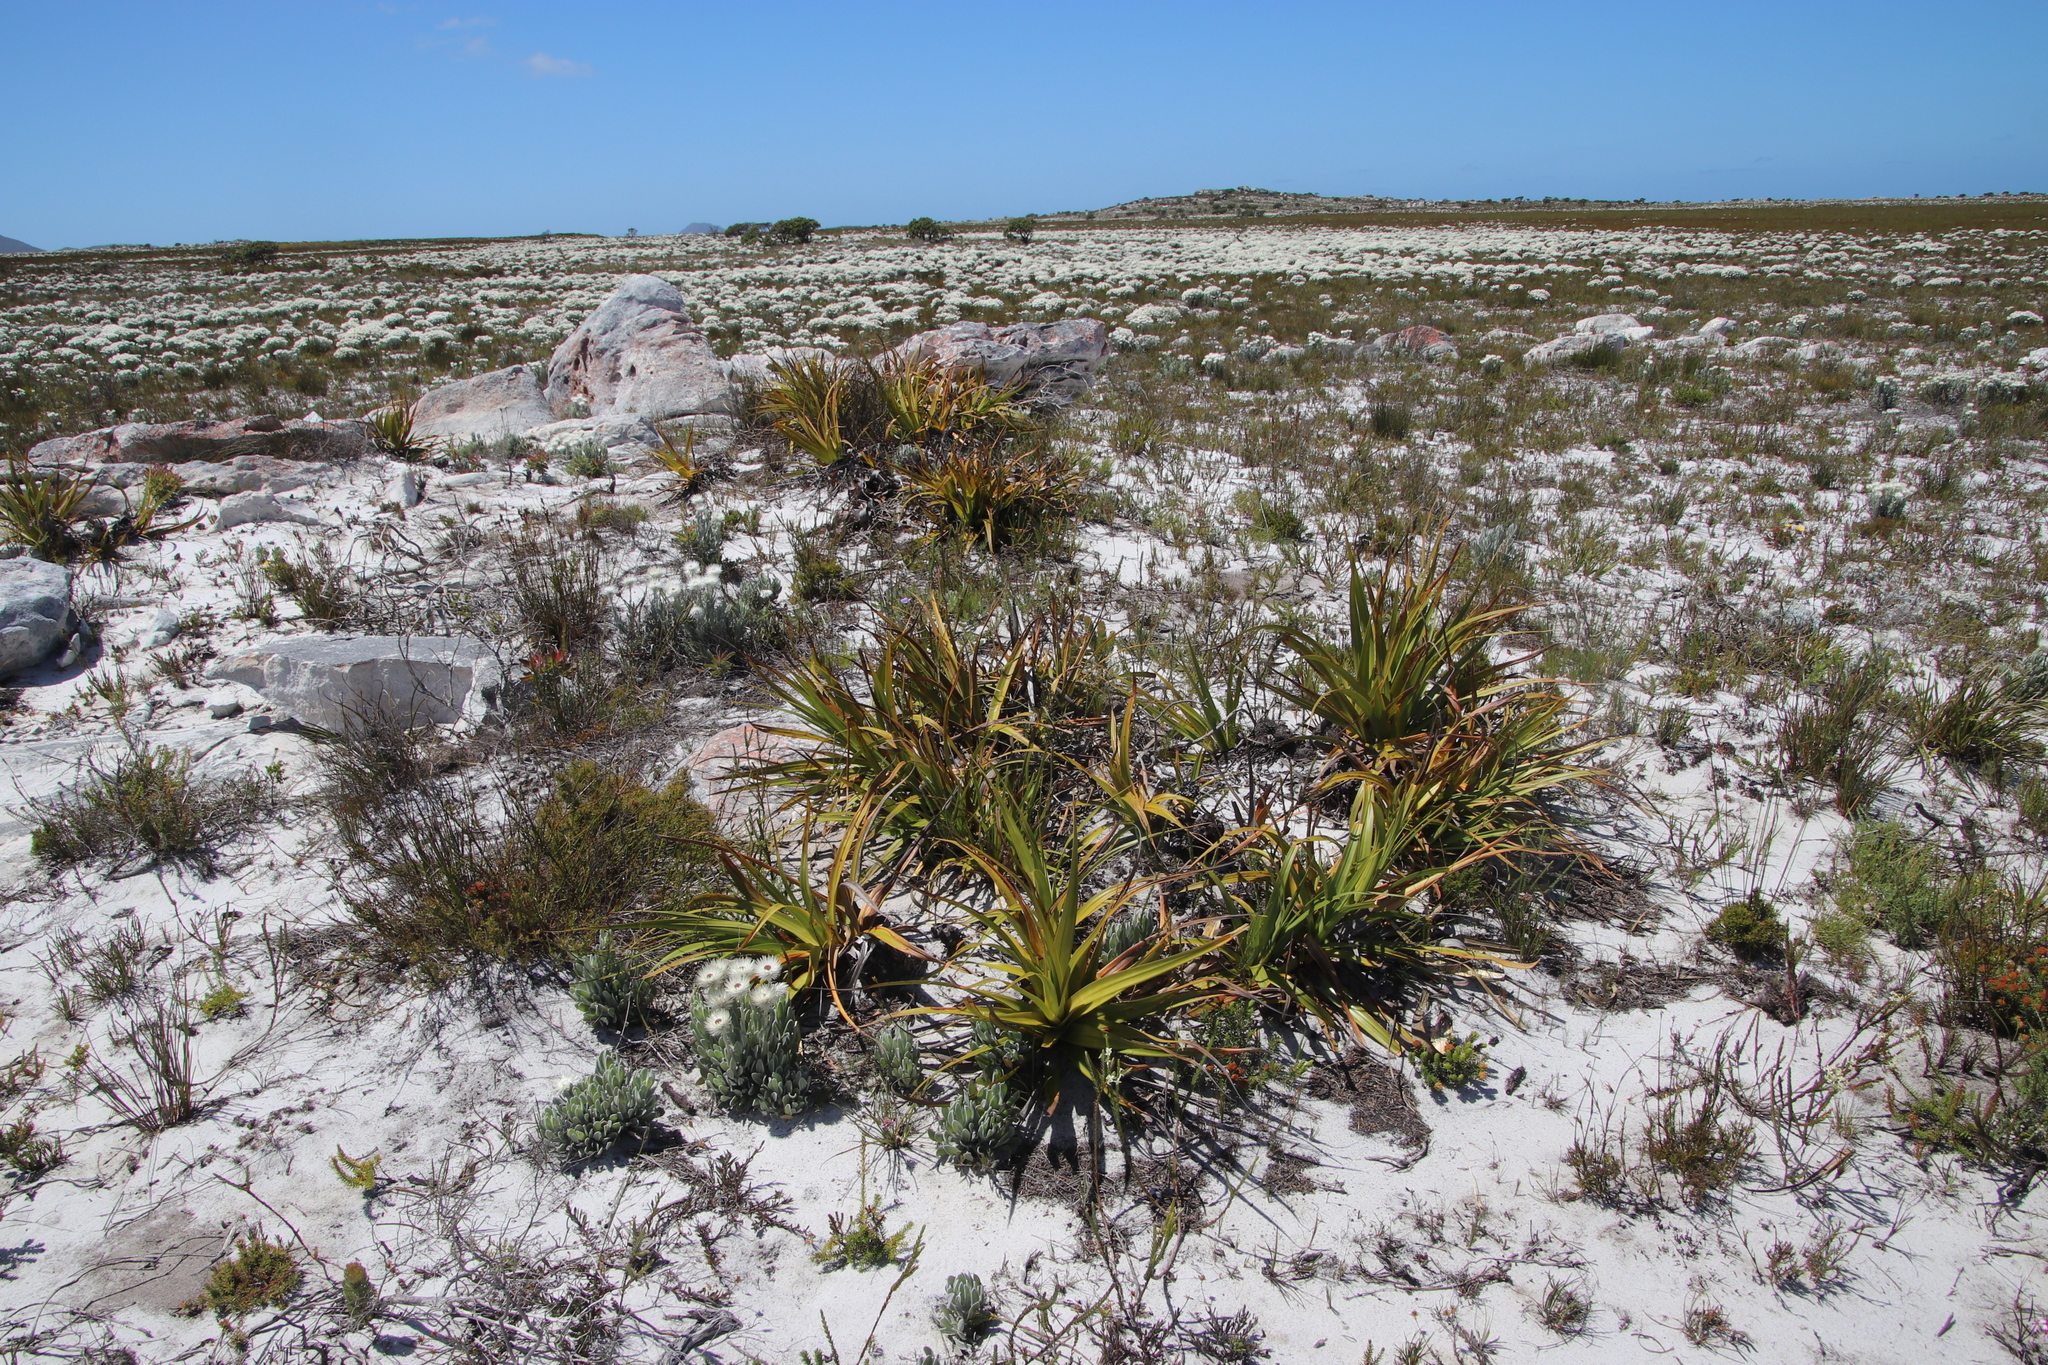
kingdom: Plantae
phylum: Tracheophyta
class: Liliopsida
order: Poales
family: Cyperaceae
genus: Tetraria
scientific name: Tetraria thermalis
